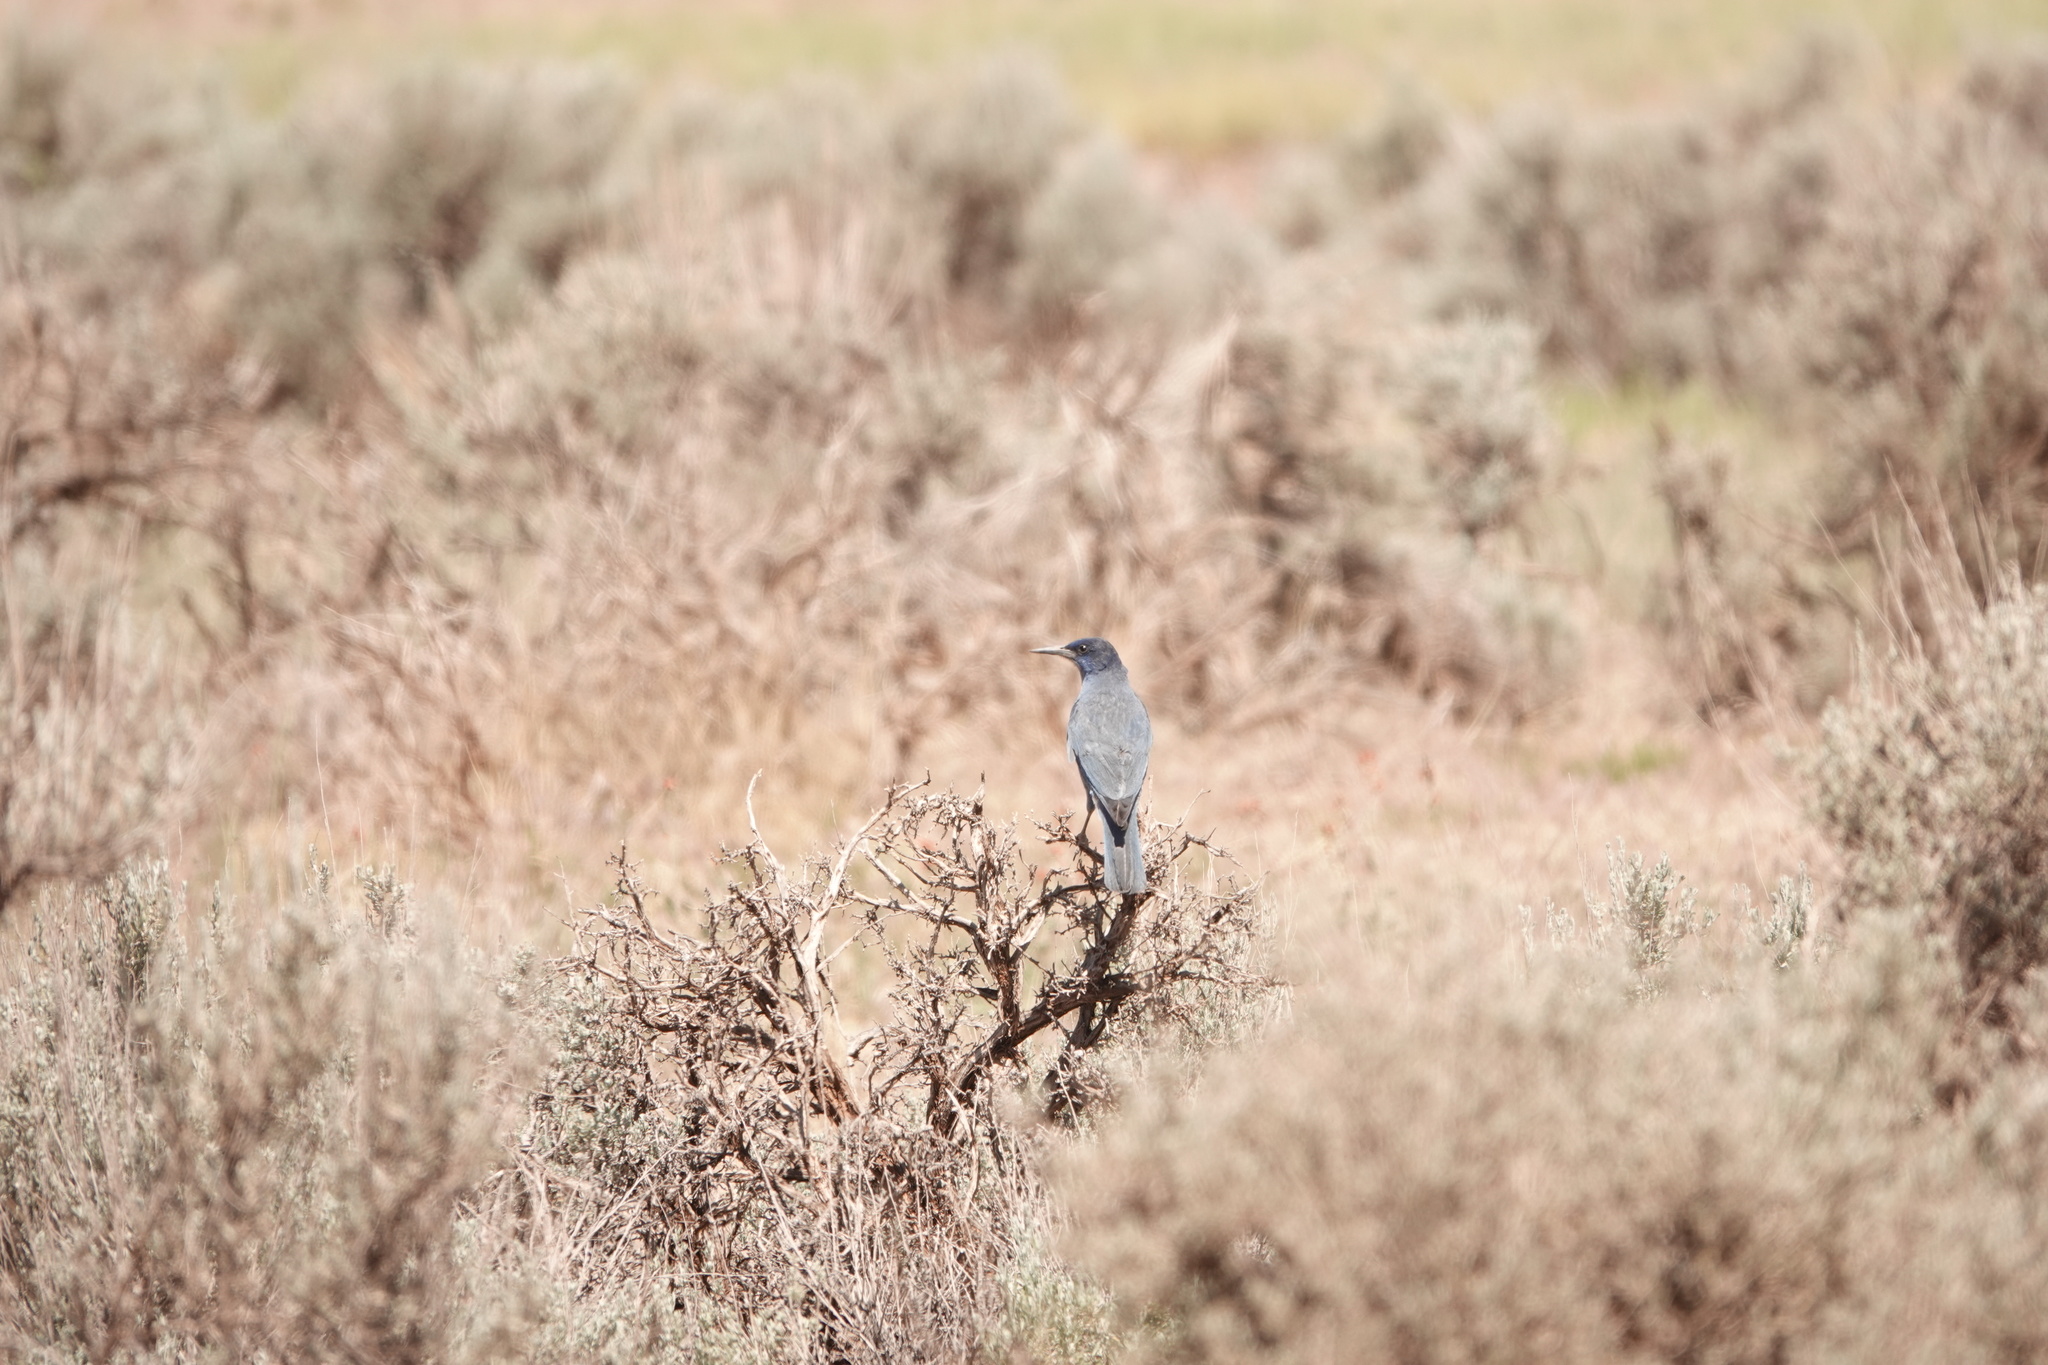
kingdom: Animalia
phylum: Chordata
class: Aves
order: Passeriformes
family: Corvidae
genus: Gymnorhinus
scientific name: Gymnorhinus cyanocephalus
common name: Pinyon jay
